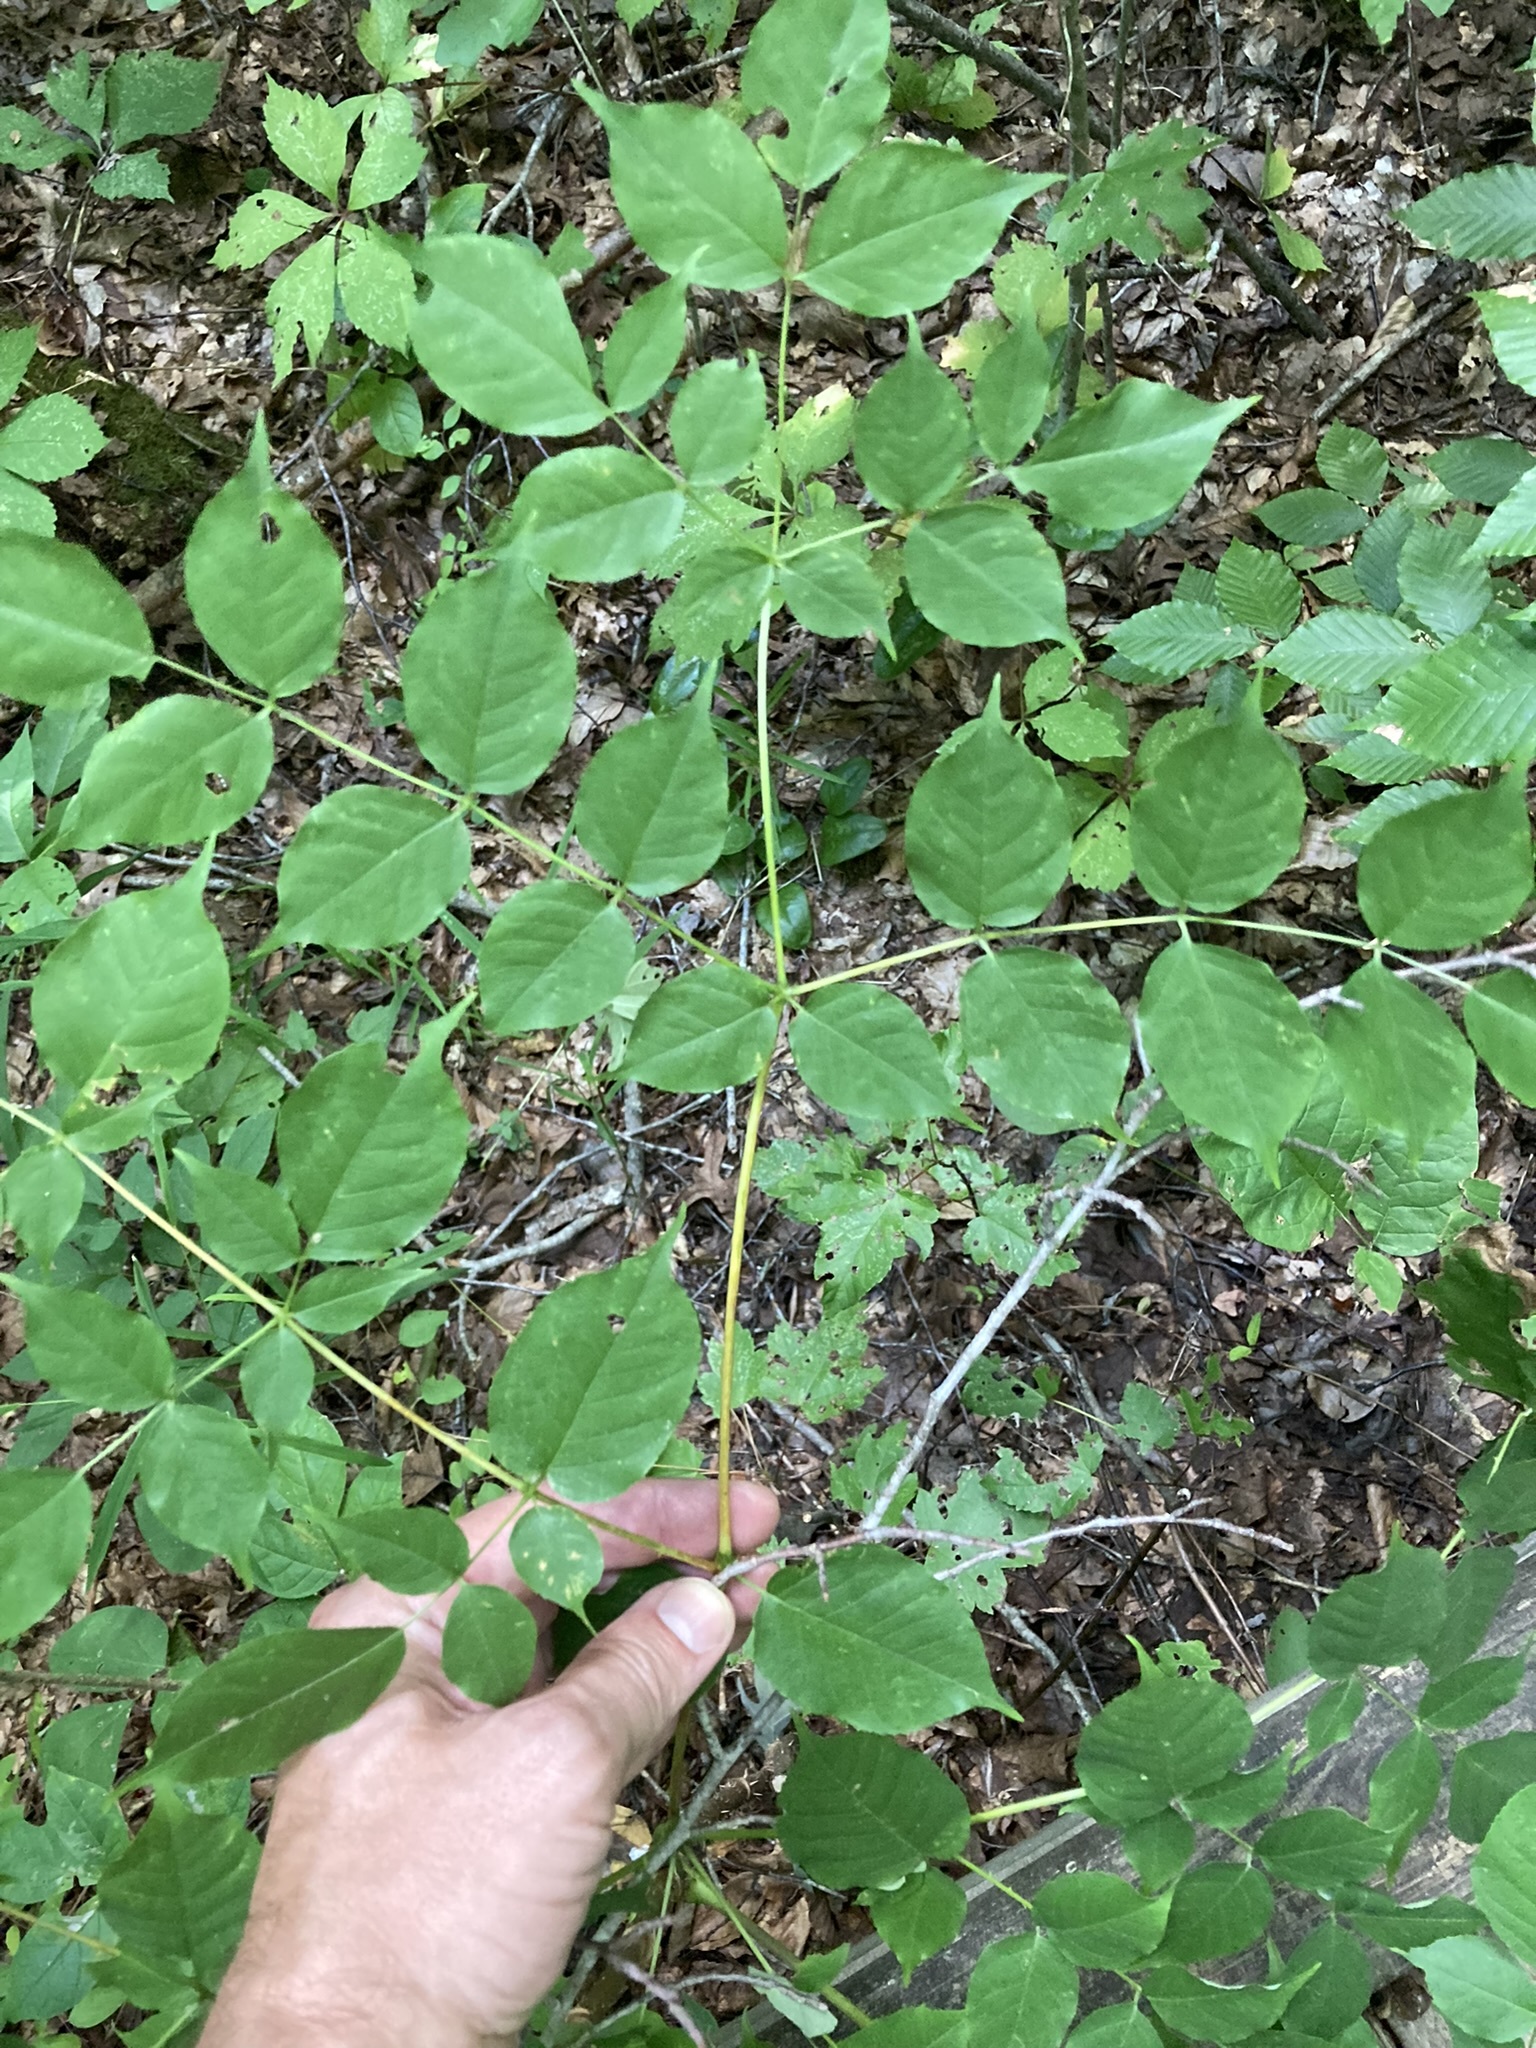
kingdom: Plantae
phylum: Tracheophyta
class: Magnoliopsida
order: Apiales
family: Araliaceae
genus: Aralia
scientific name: Aralia spinosa
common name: Hercules'-club
